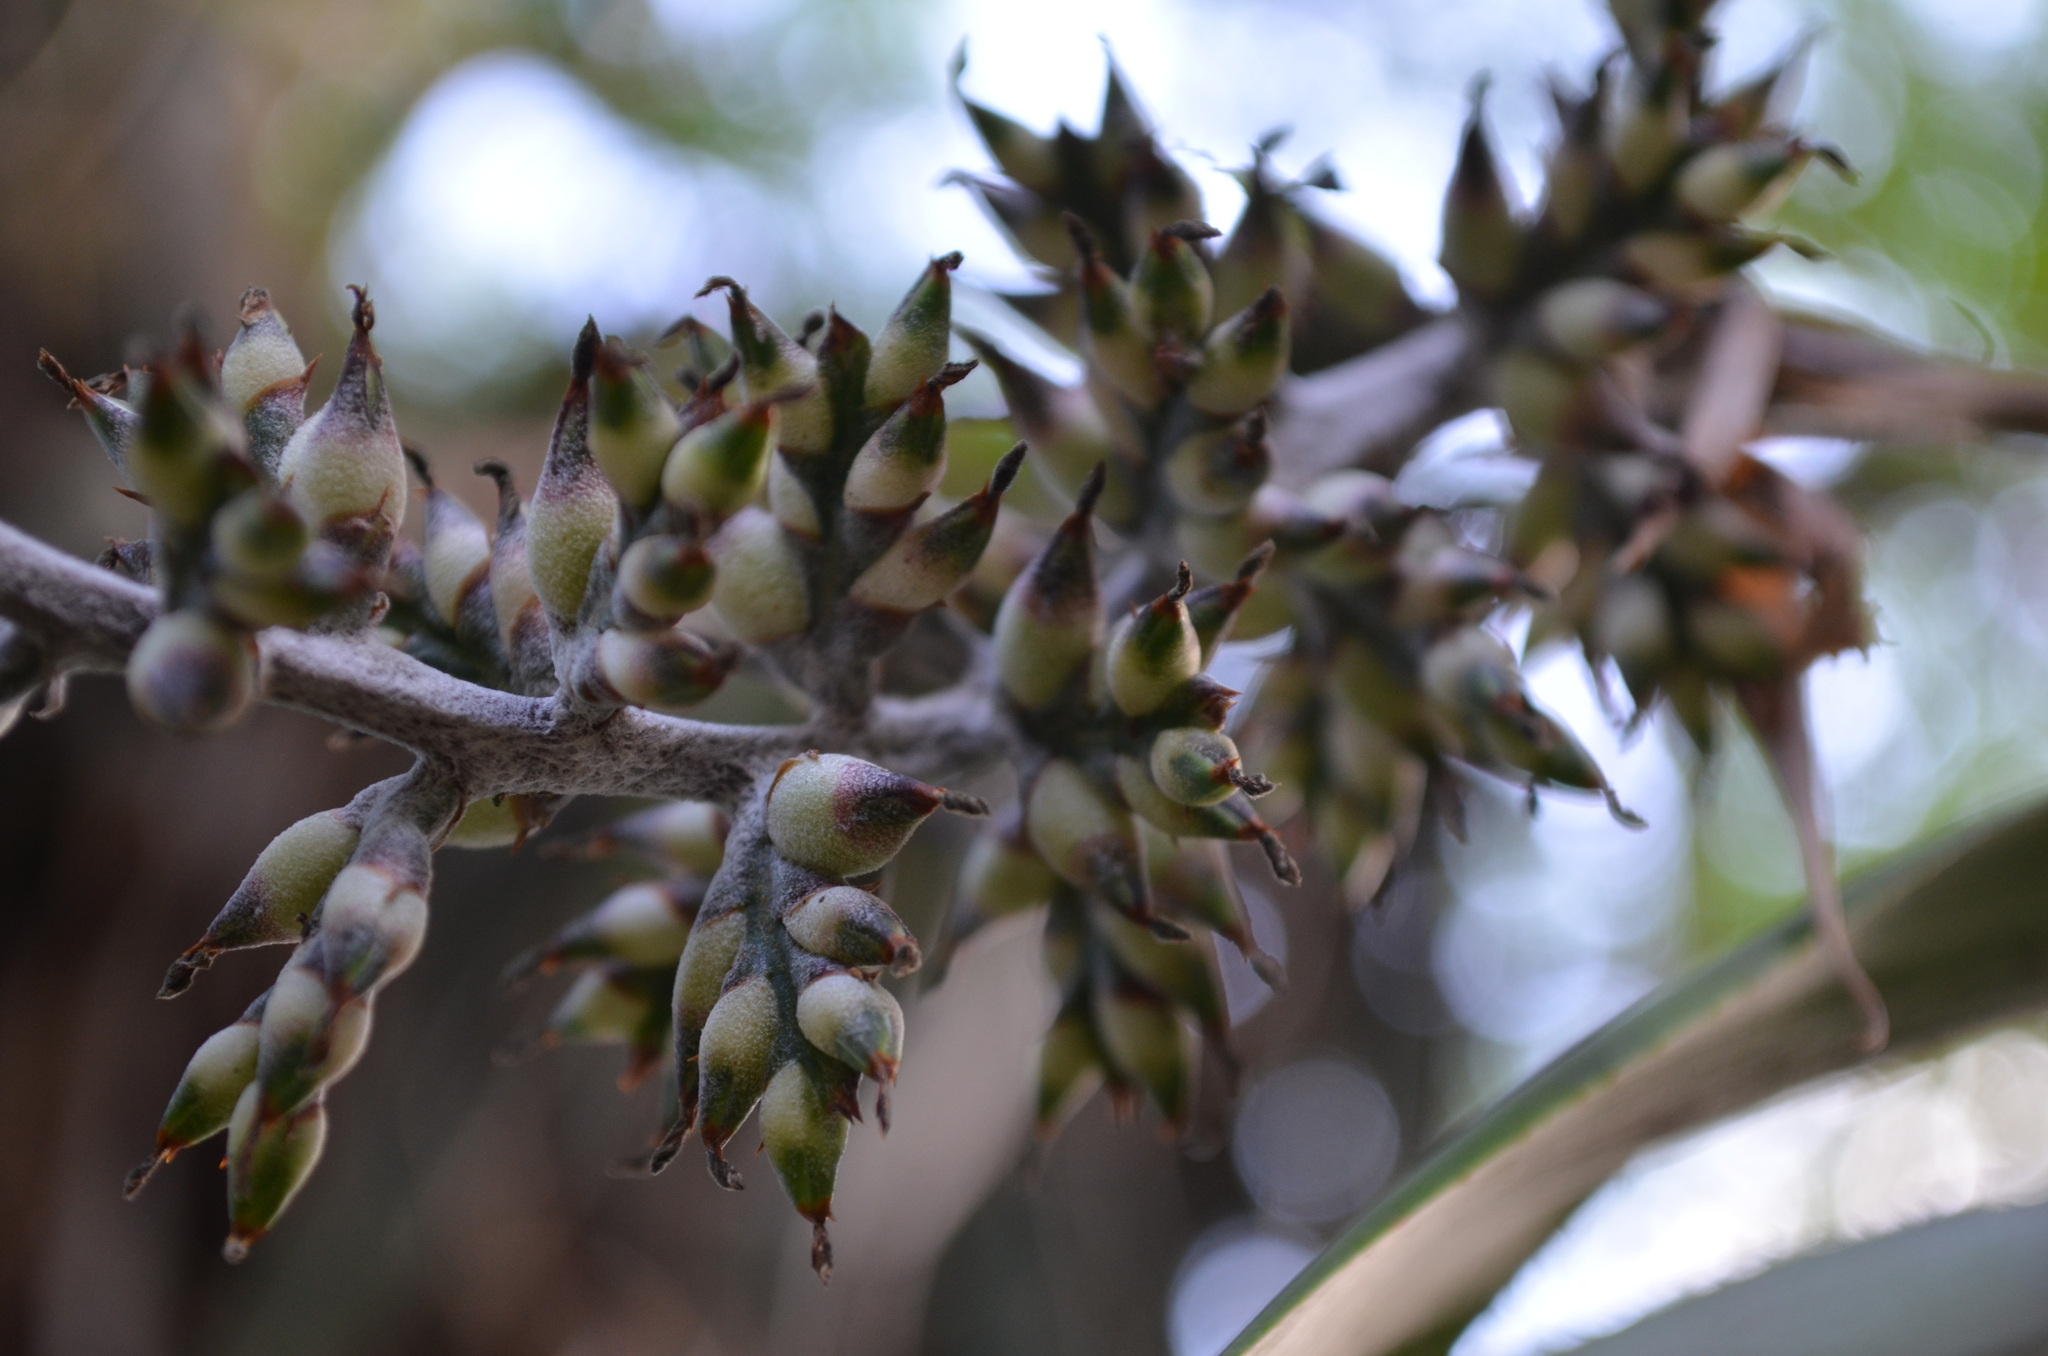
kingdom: Plantae
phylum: Tracheophyta
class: Liliopsida
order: Poales
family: Bromeliaceae
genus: Aechmea
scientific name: Aechmea angustifolia
